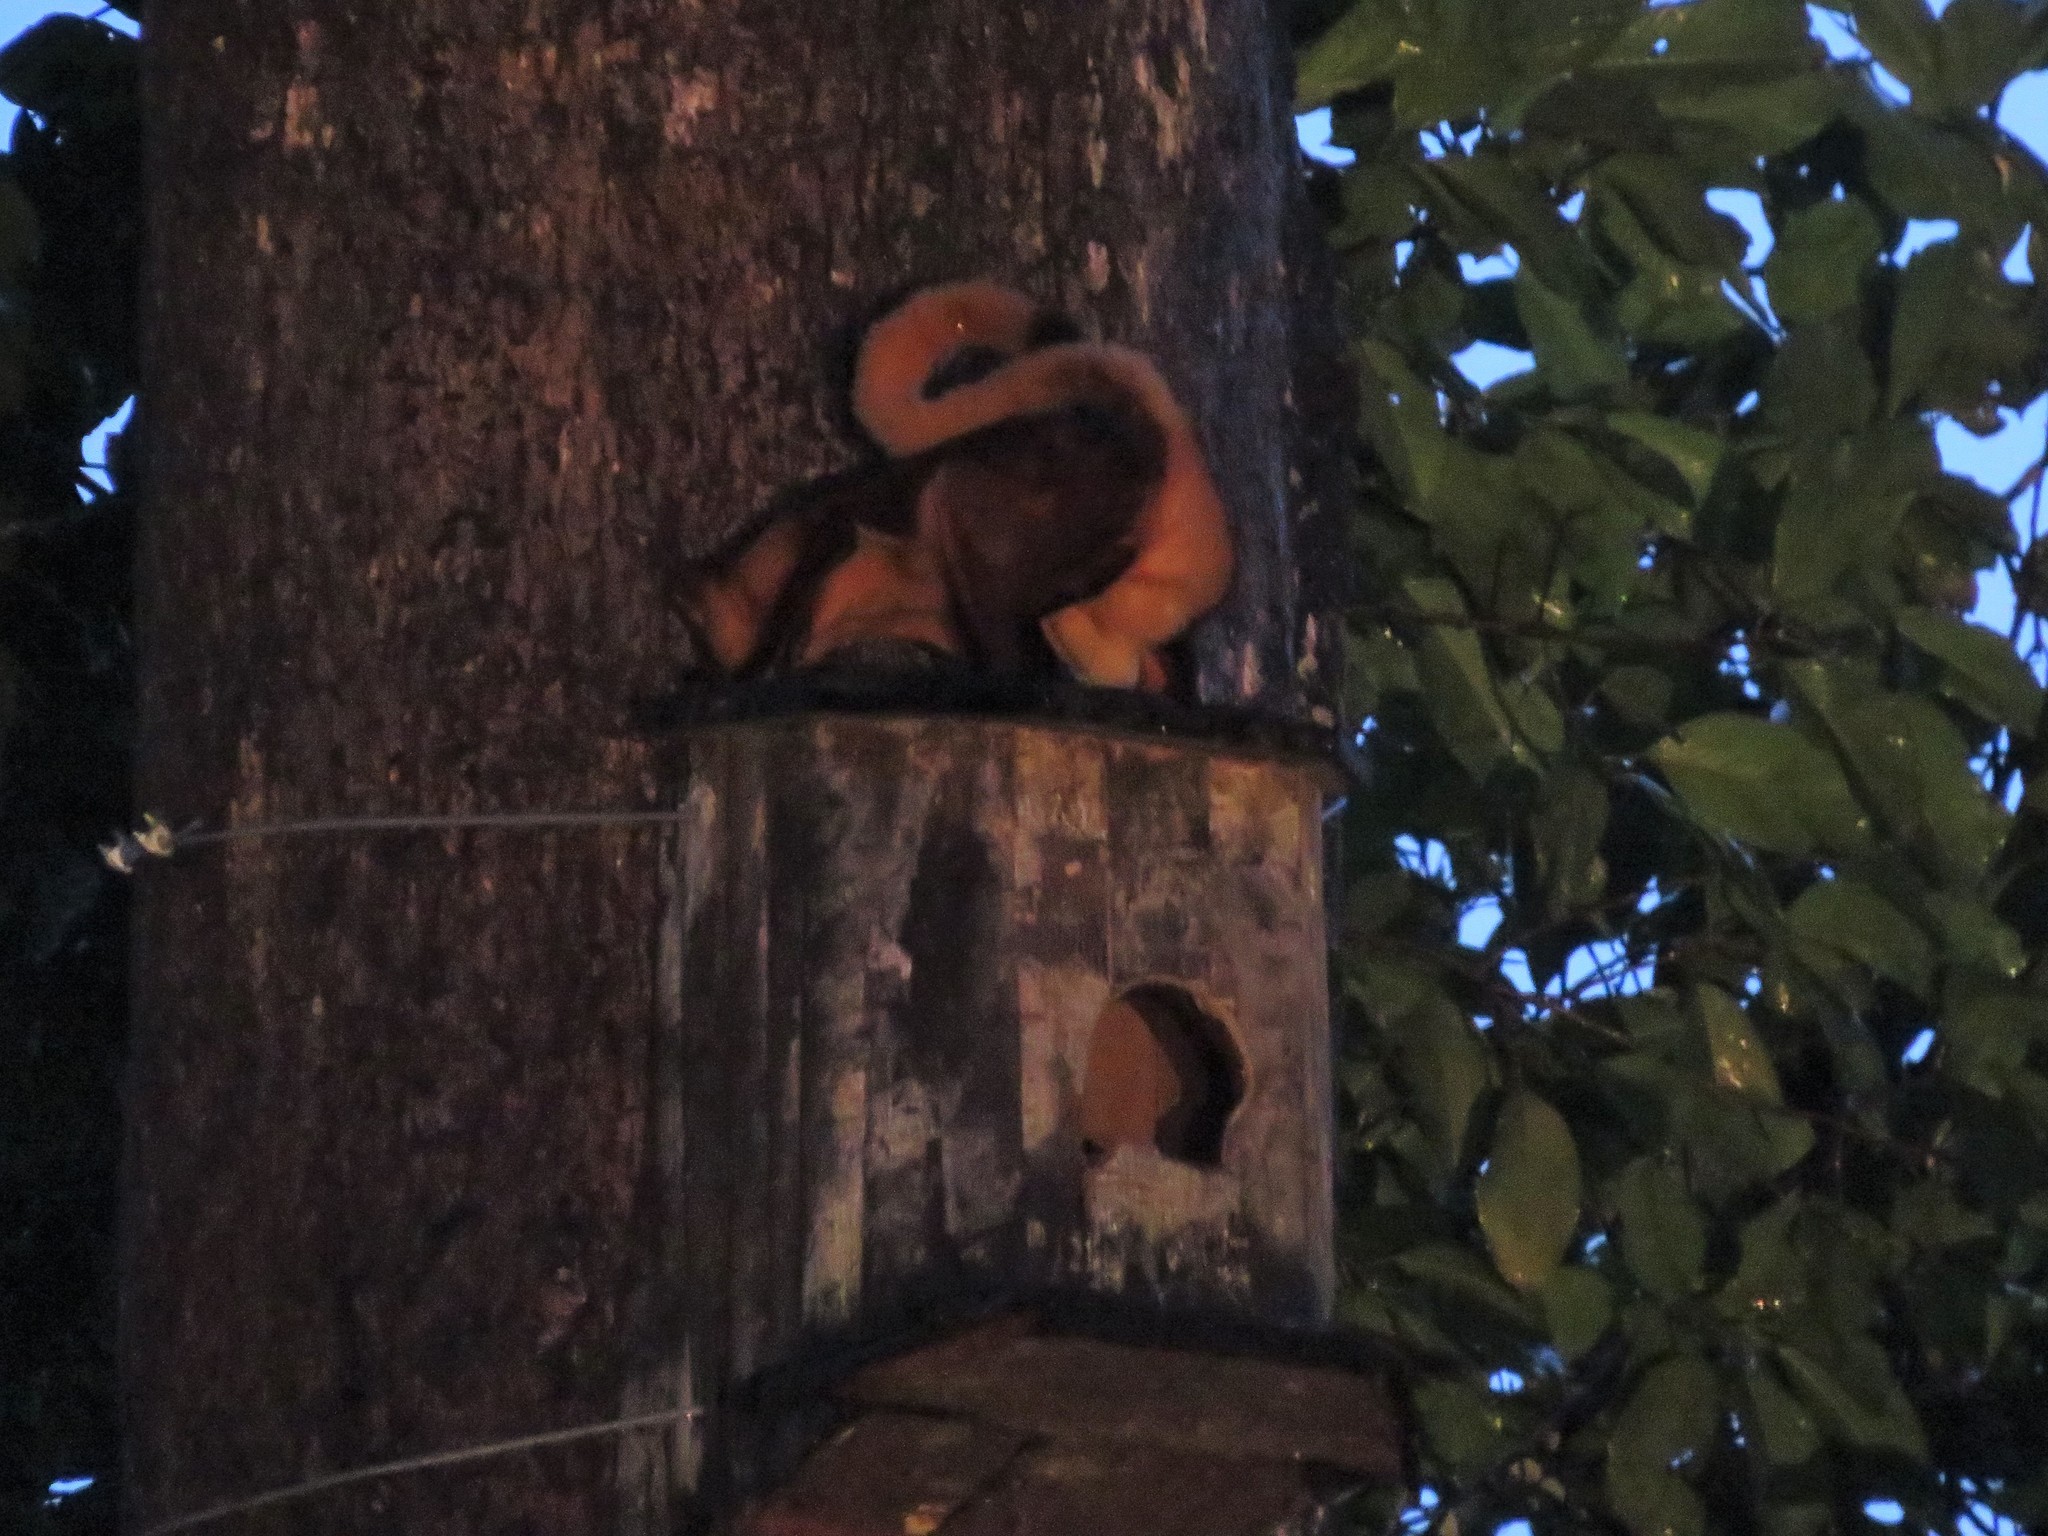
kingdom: Animalia
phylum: Chordata
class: Mammalia
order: Rodentia
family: Sciuridae
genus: Petaurista
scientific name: Petaurista petaurista
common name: Red giant flying squirrel
